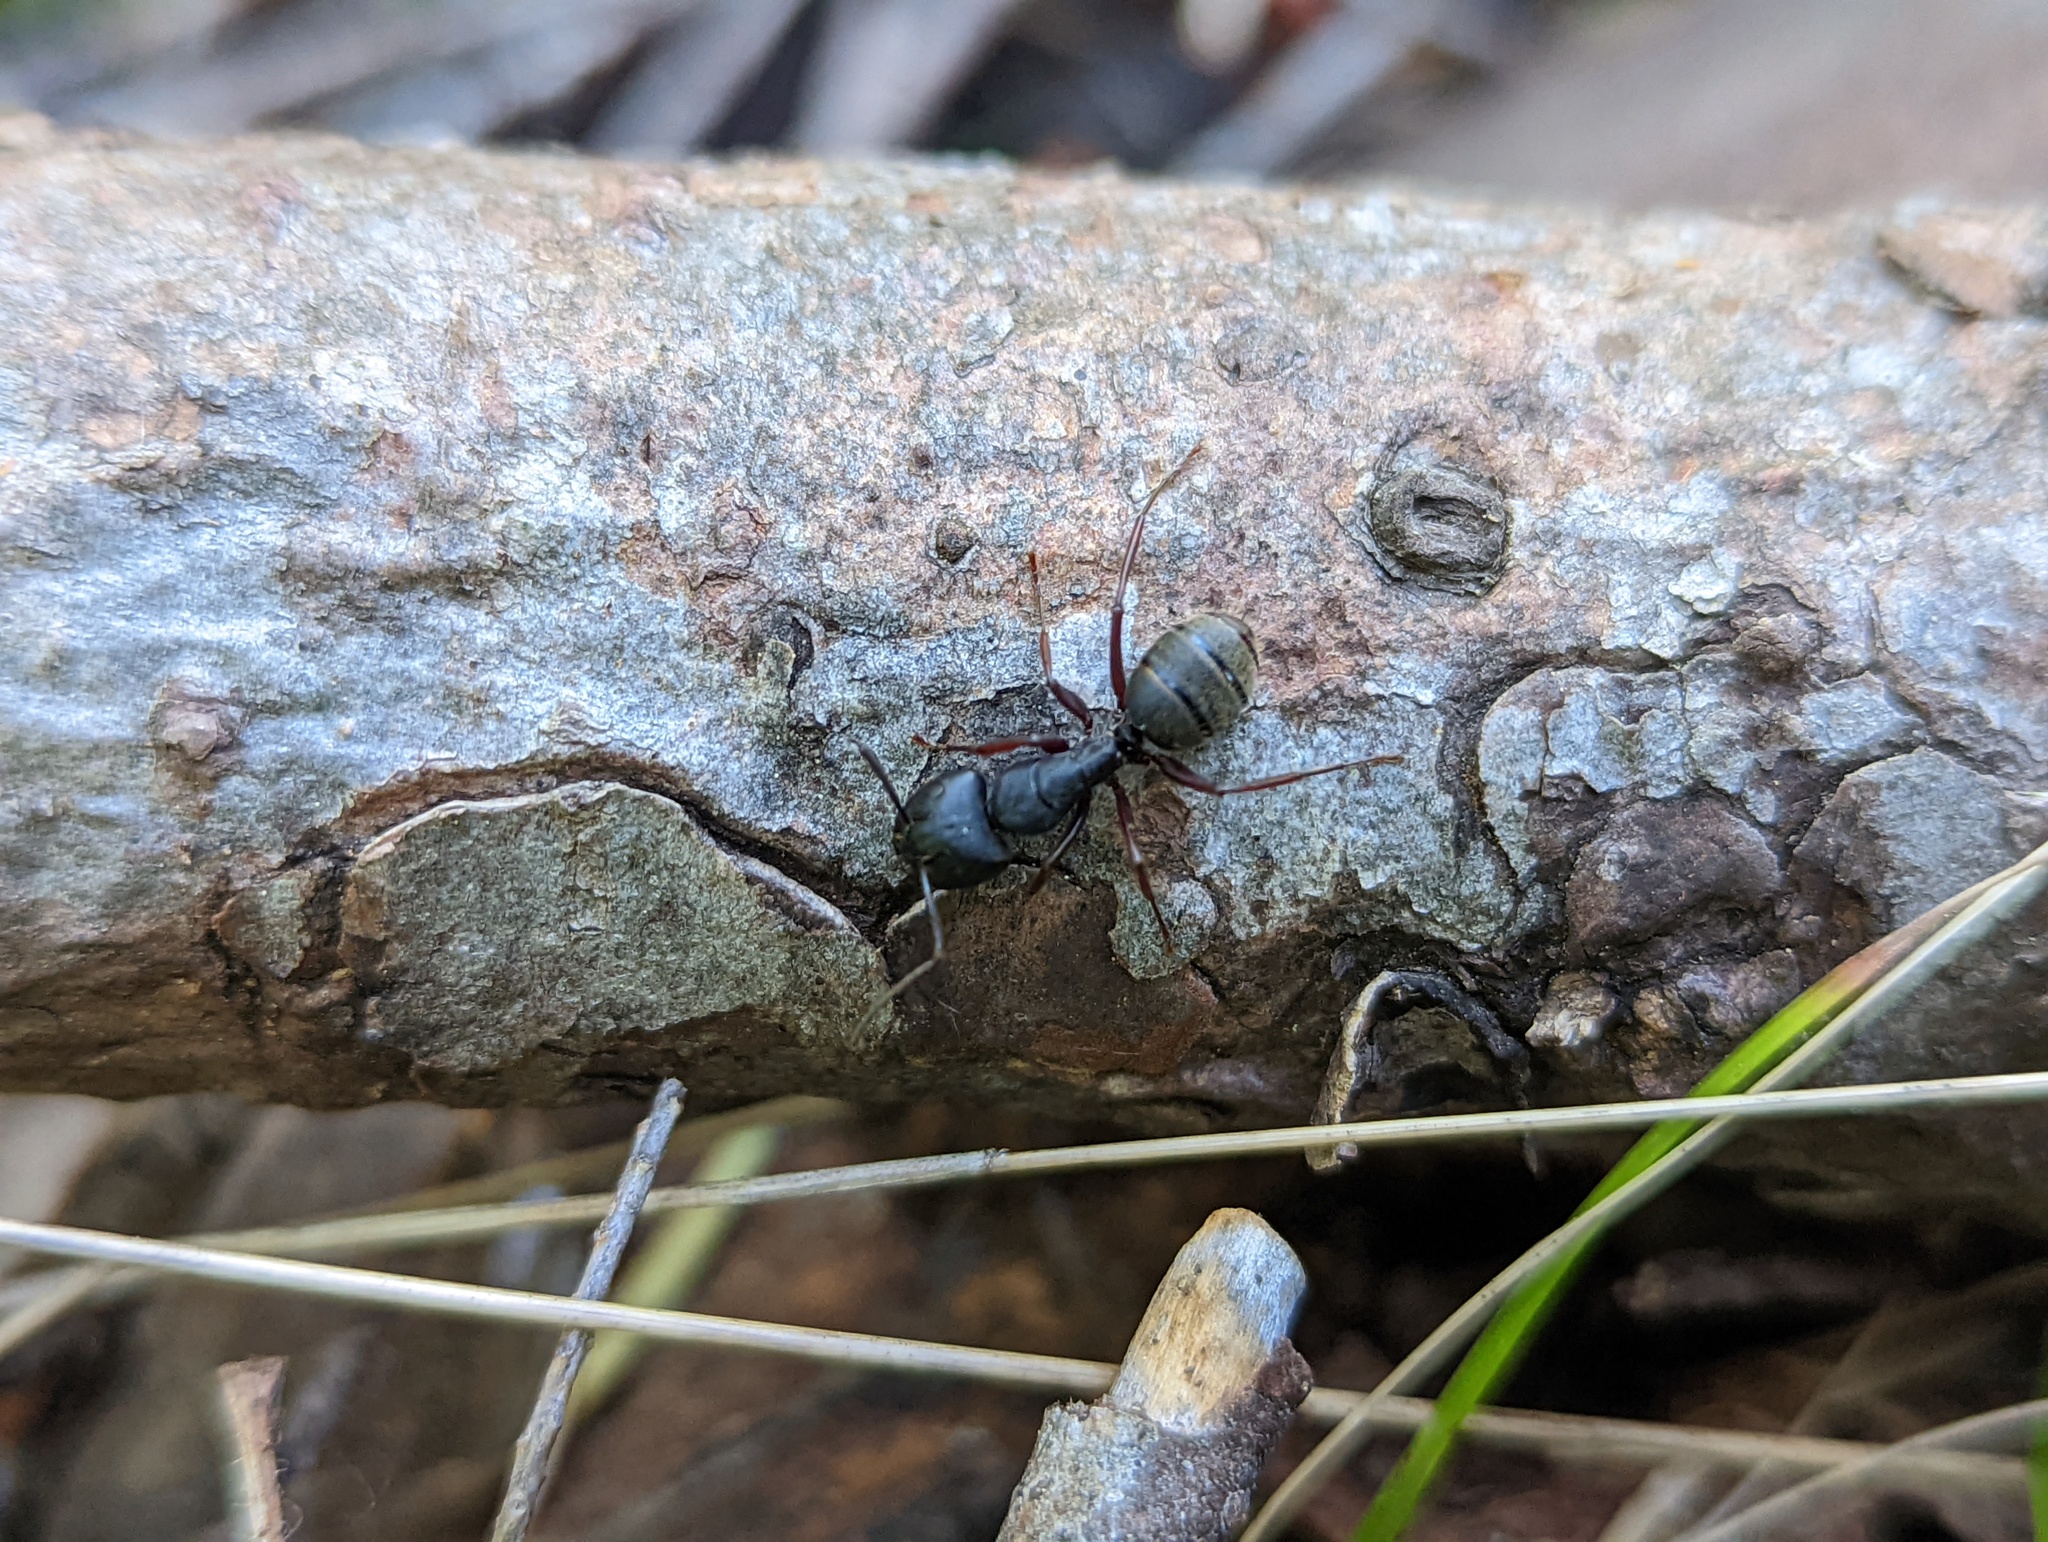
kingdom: Animalia
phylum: Arthropoda
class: Insecta
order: Hymenoptera
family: Formicidae
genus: Camponotus
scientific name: Camponotus modoc
